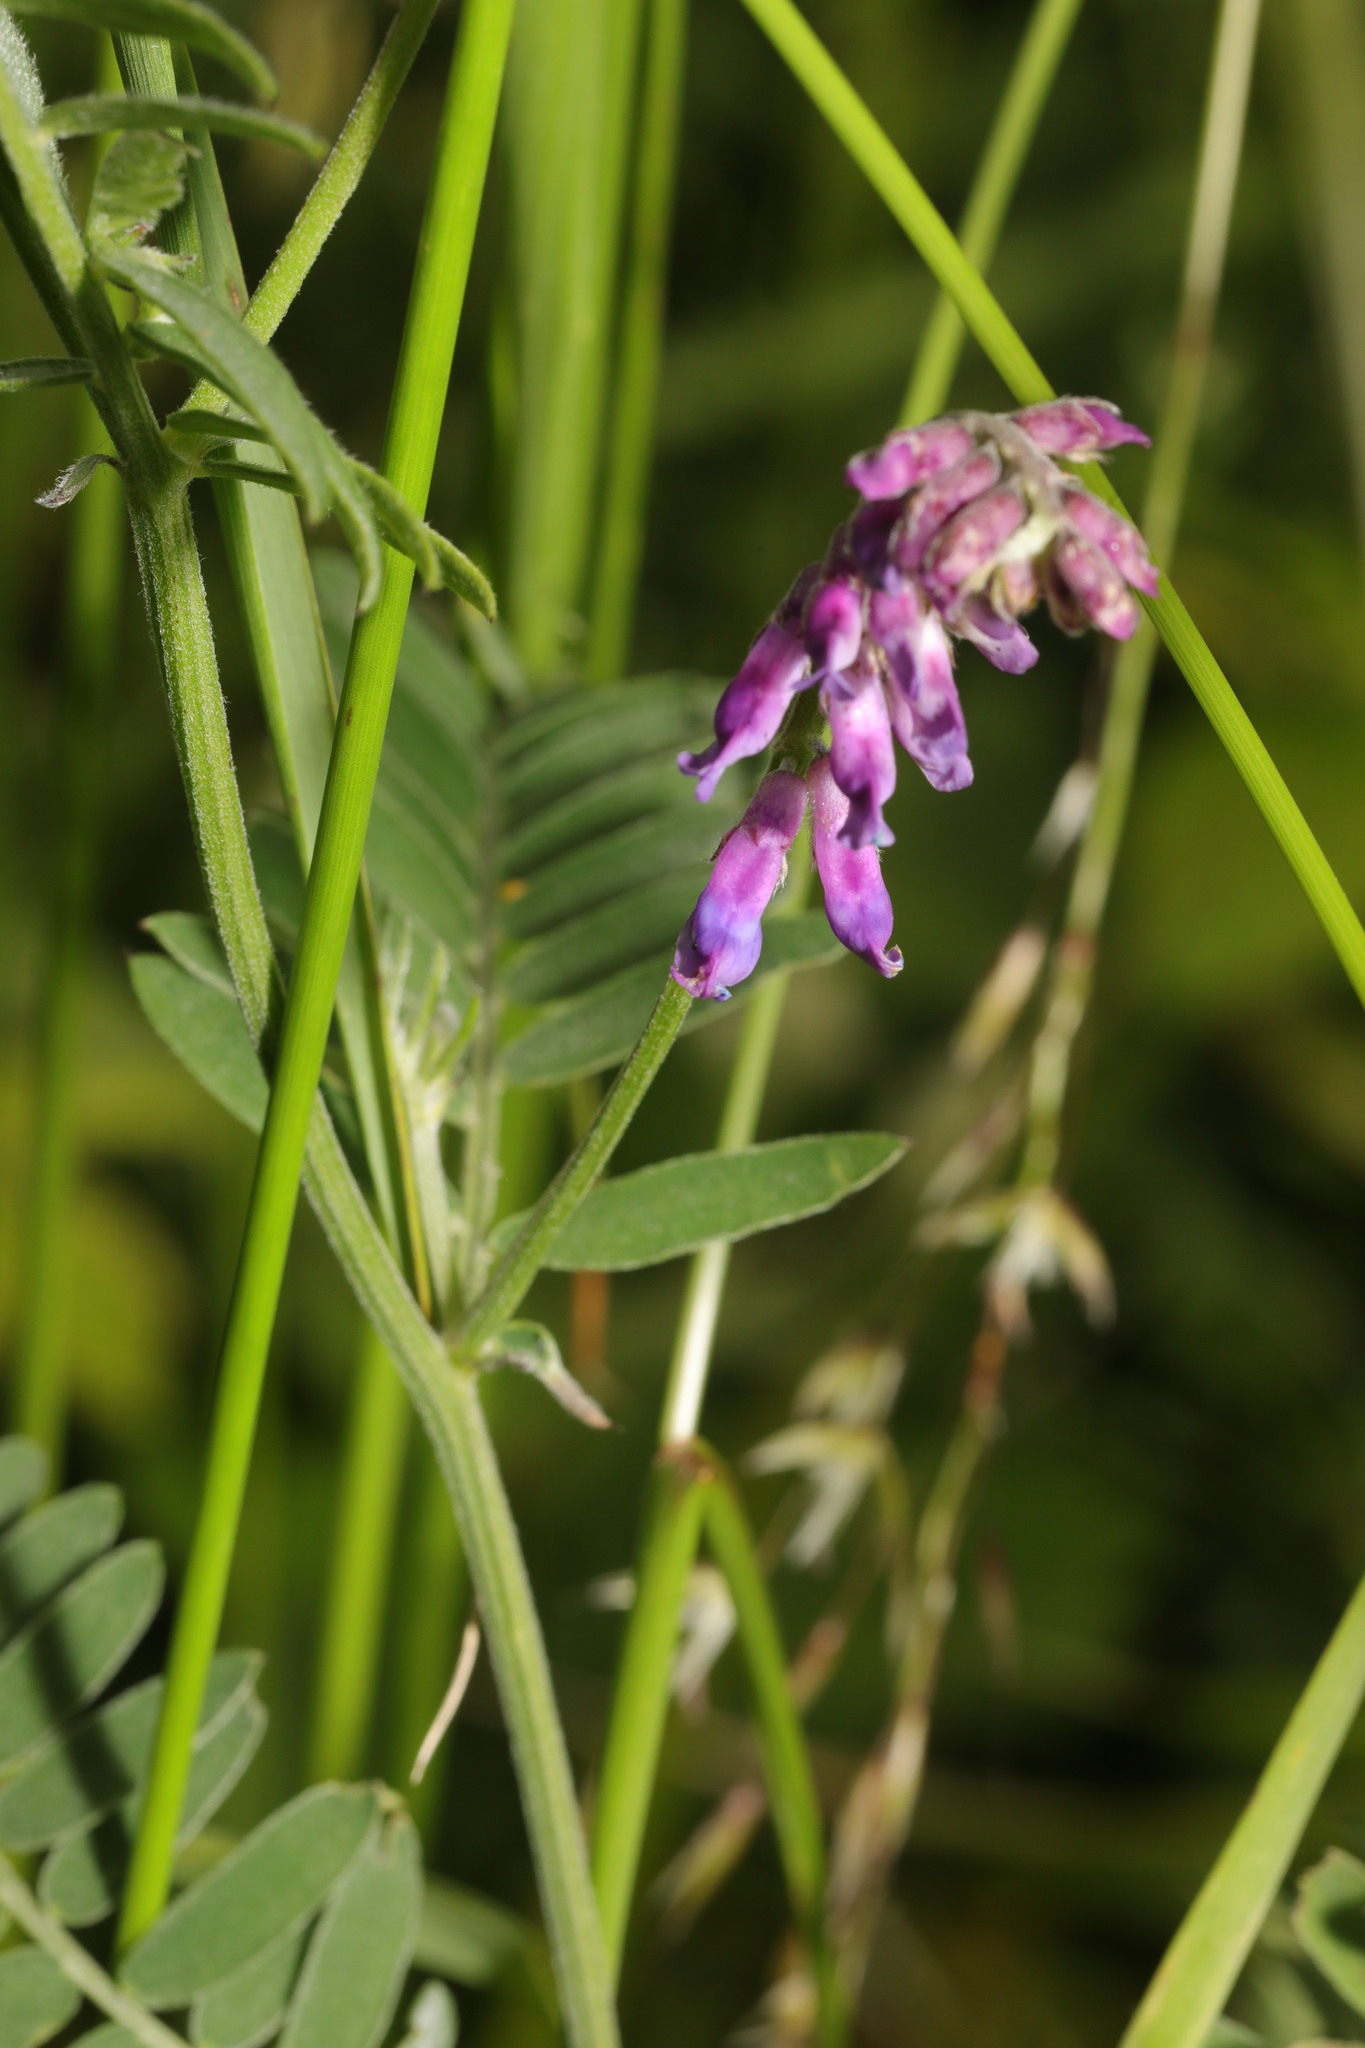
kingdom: Plantae
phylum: Tracheophyta
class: Magnoliopsida
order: Fabales
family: Fabaceae
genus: Vicia
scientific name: Vicia cracca
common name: Bird vetch
